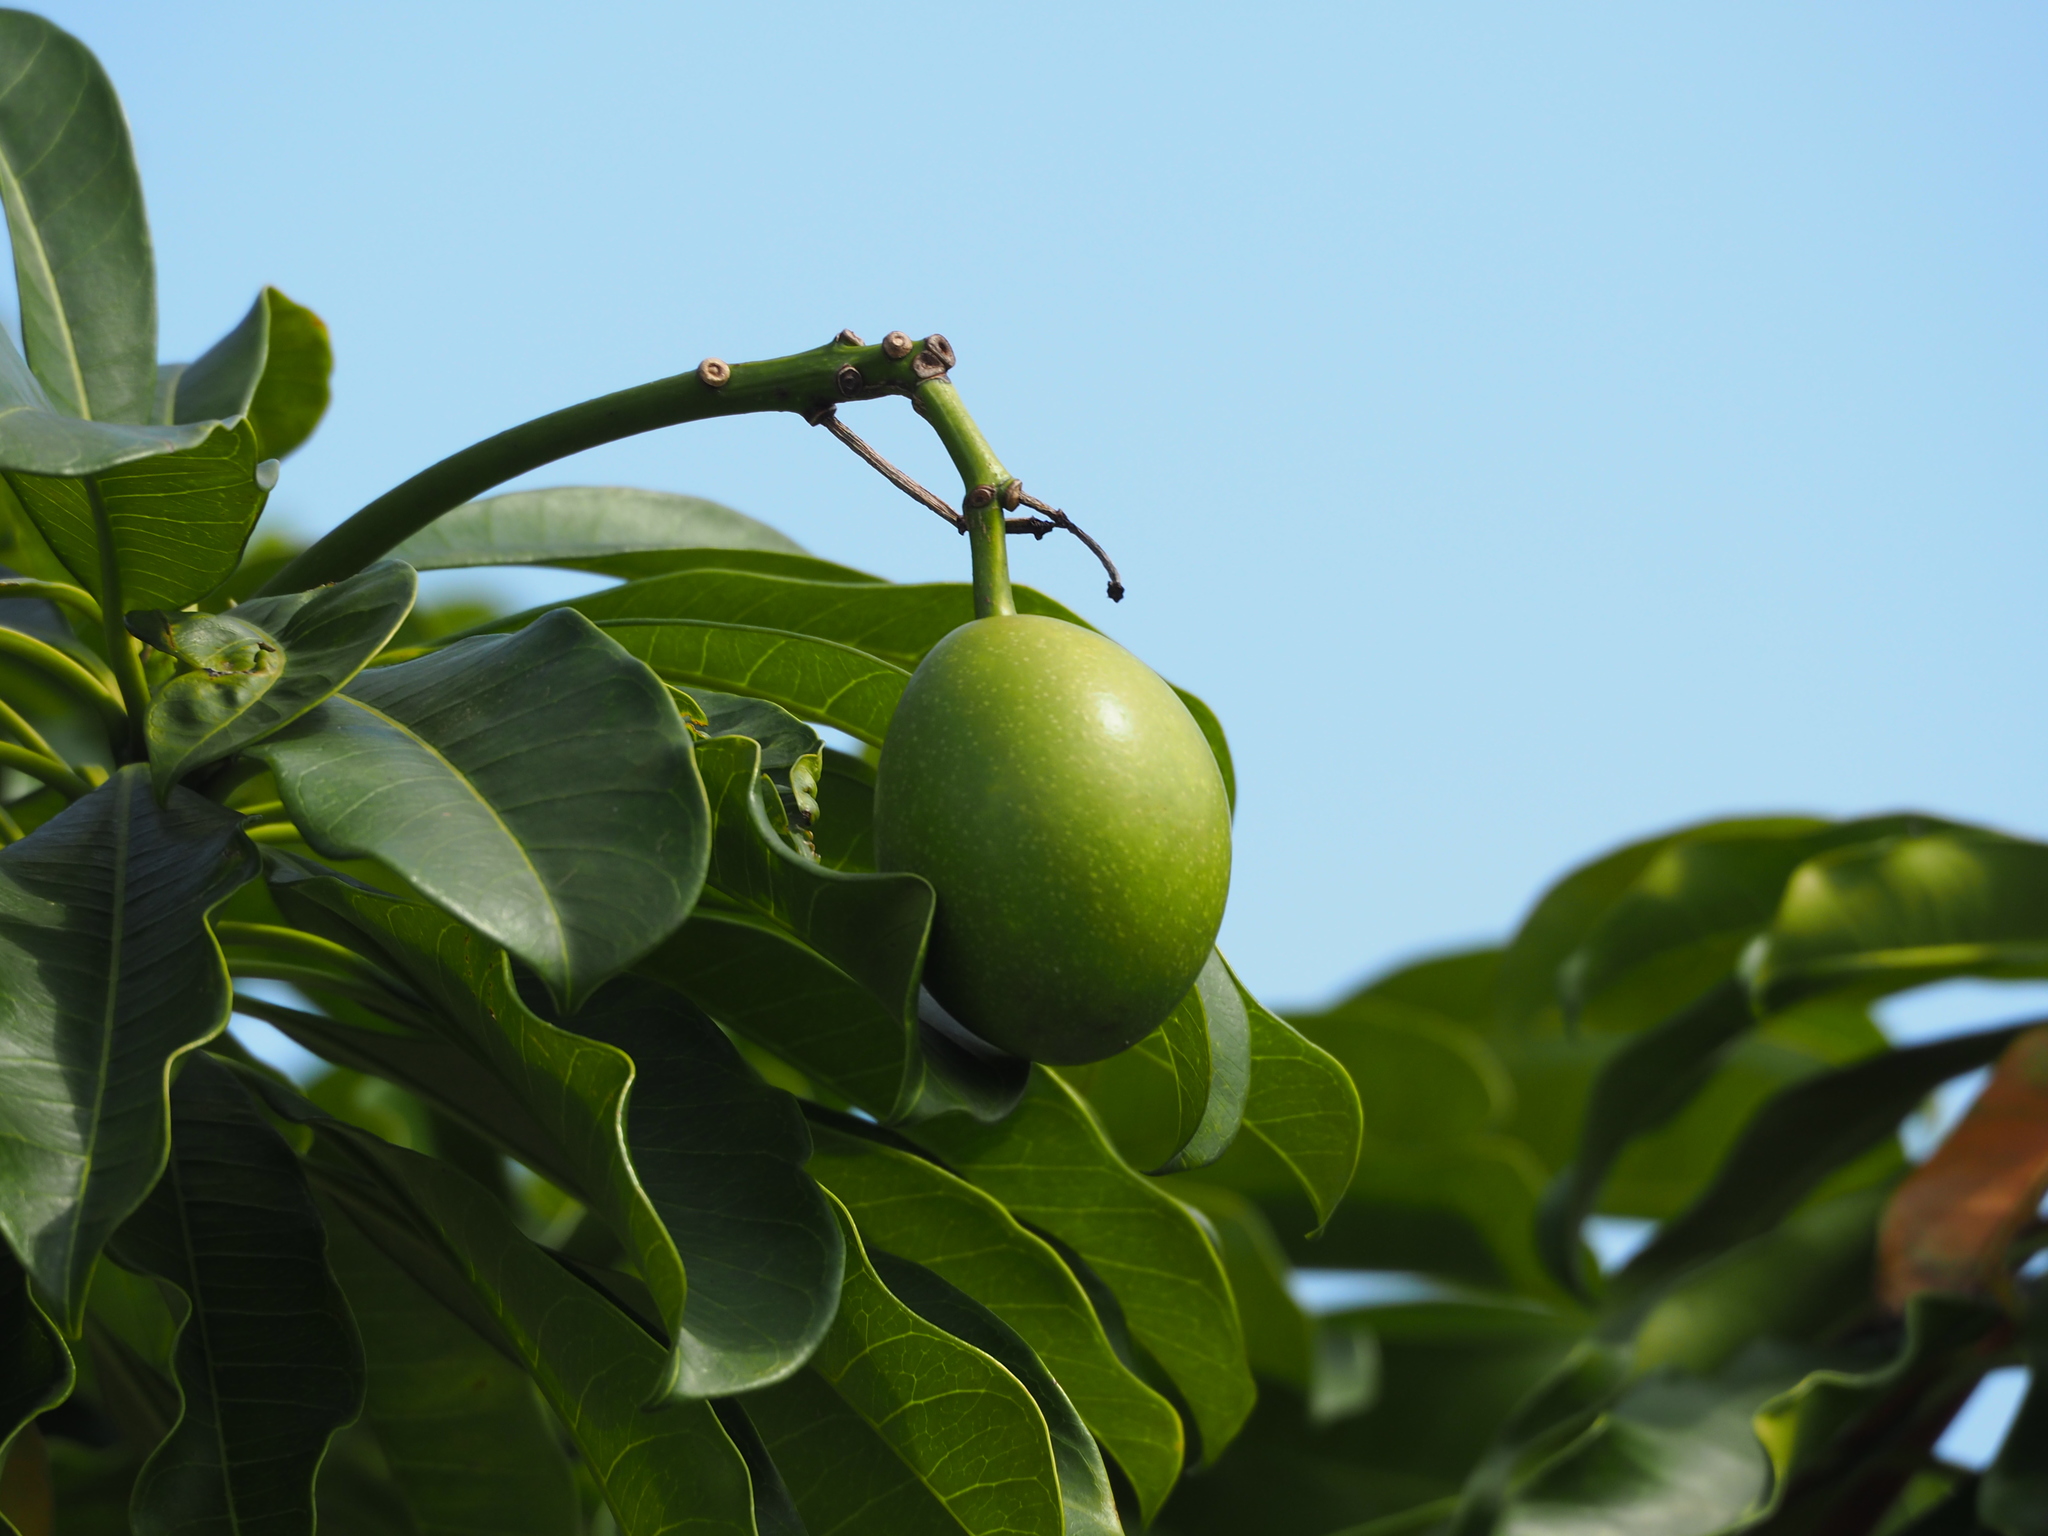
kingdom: Plantae
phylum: Tracheophyta
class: Magnoliopsida
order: Gentianales
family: Apocynaceae
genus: Cerbera
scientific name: Cerbera manghas
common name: Reva
